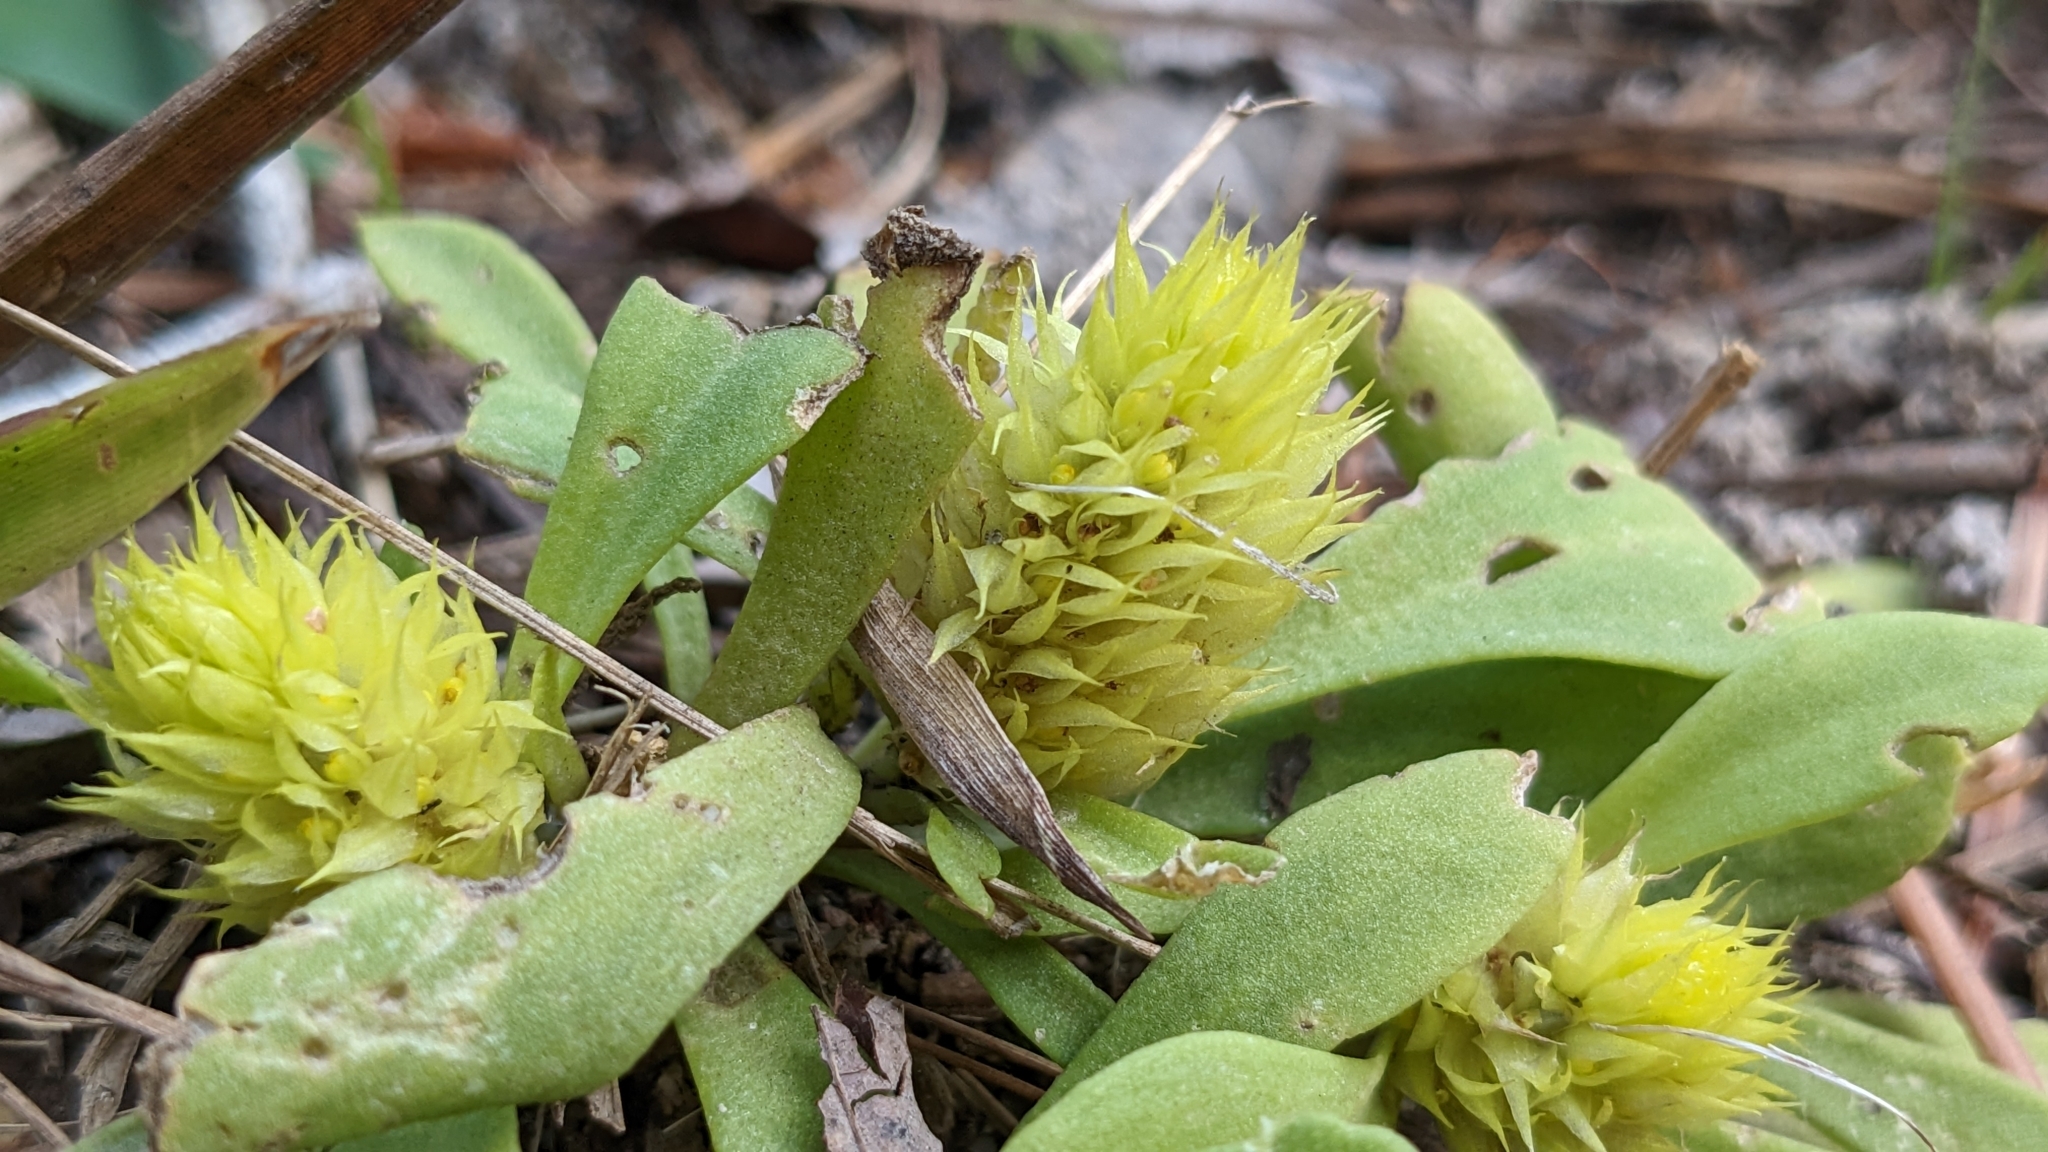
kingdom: Plantae
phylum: Tracheophyta
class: Magnoliopsida
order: Fabales
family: Polygalaceae
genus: Polygala
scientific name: Polygala nana
